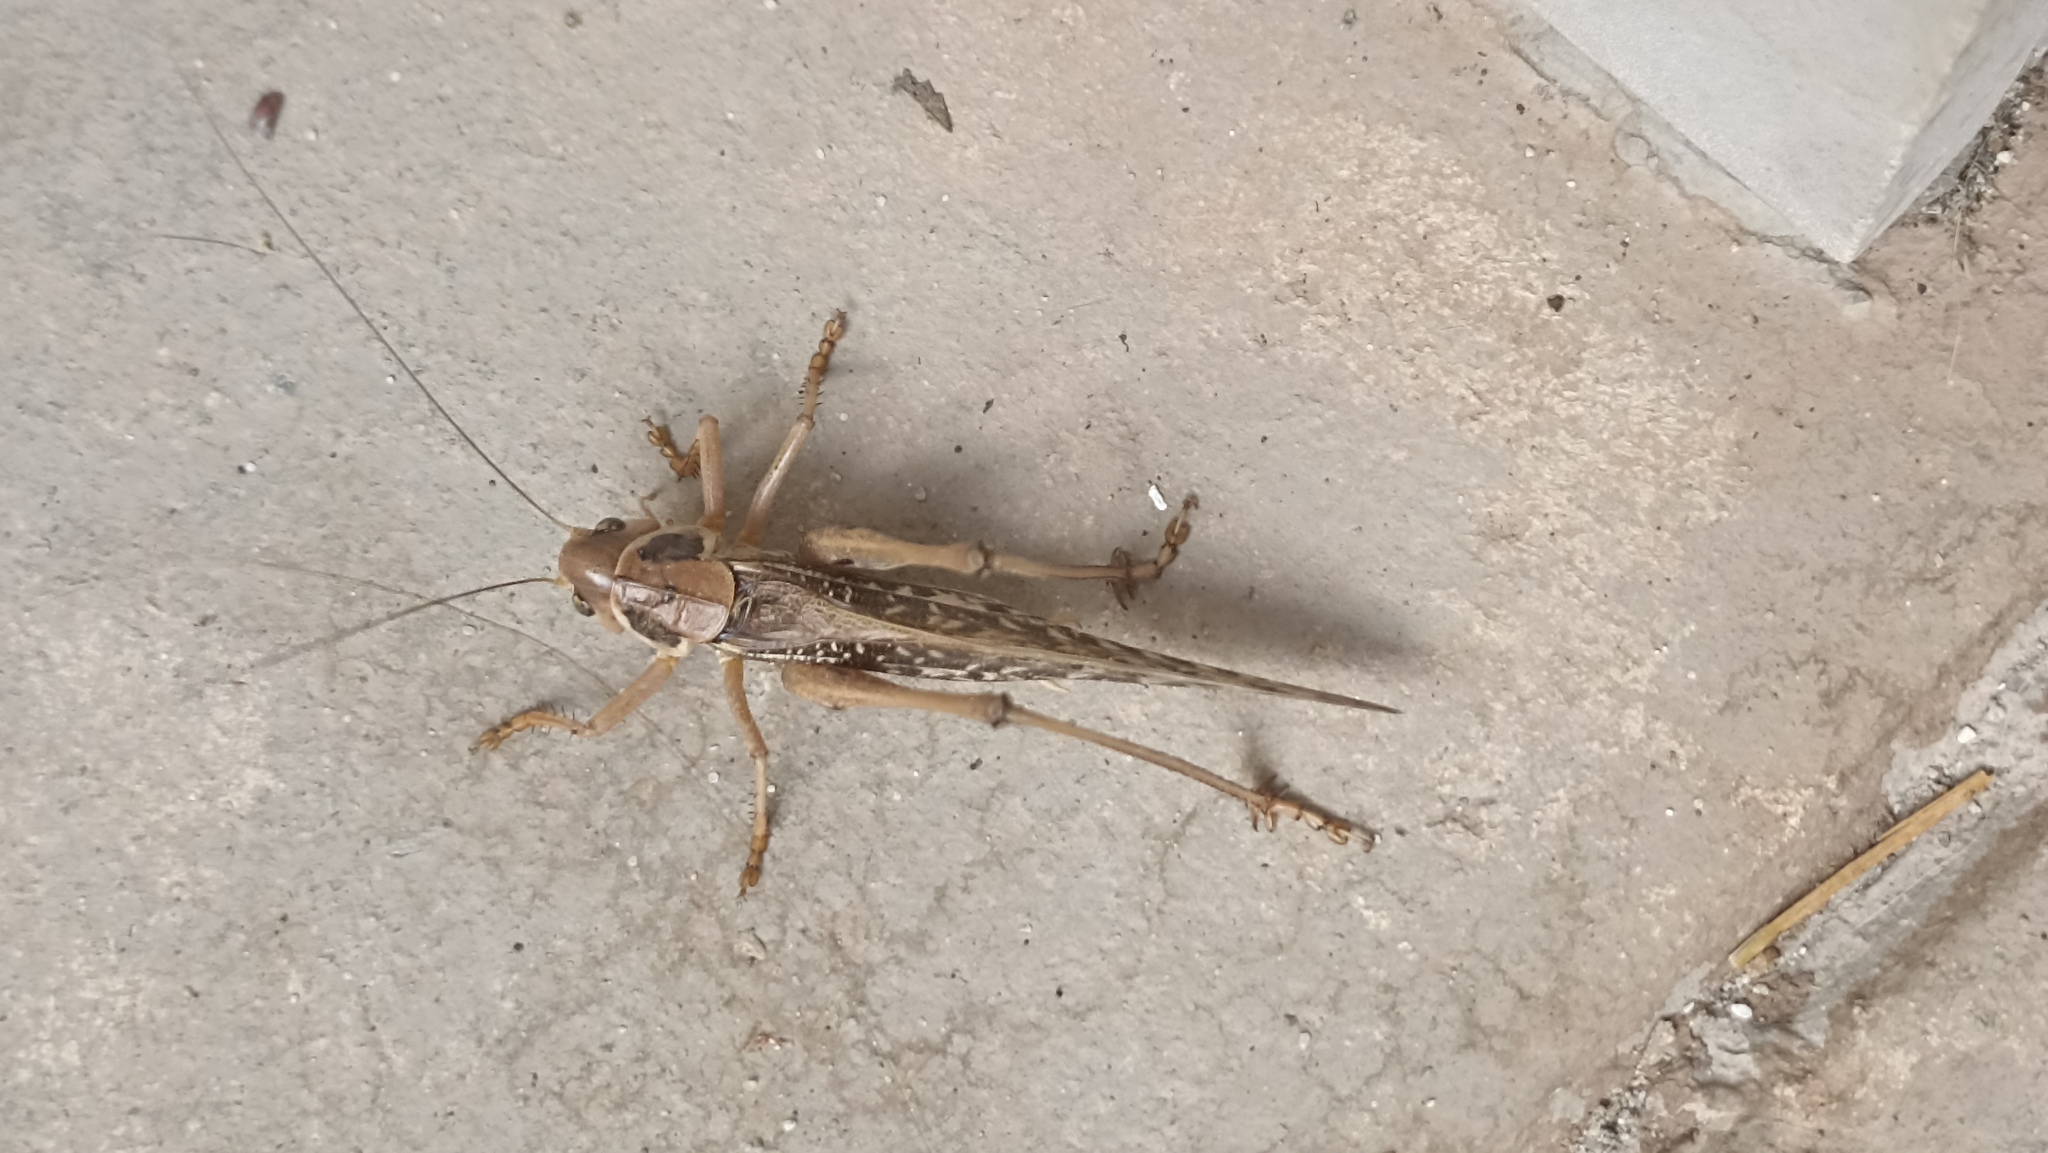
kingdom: Animalia
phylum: Arthropoda
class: Insecta
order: Orthoptera
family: Tettigoniidae
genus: Decticus
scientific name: Decticus albifrons
